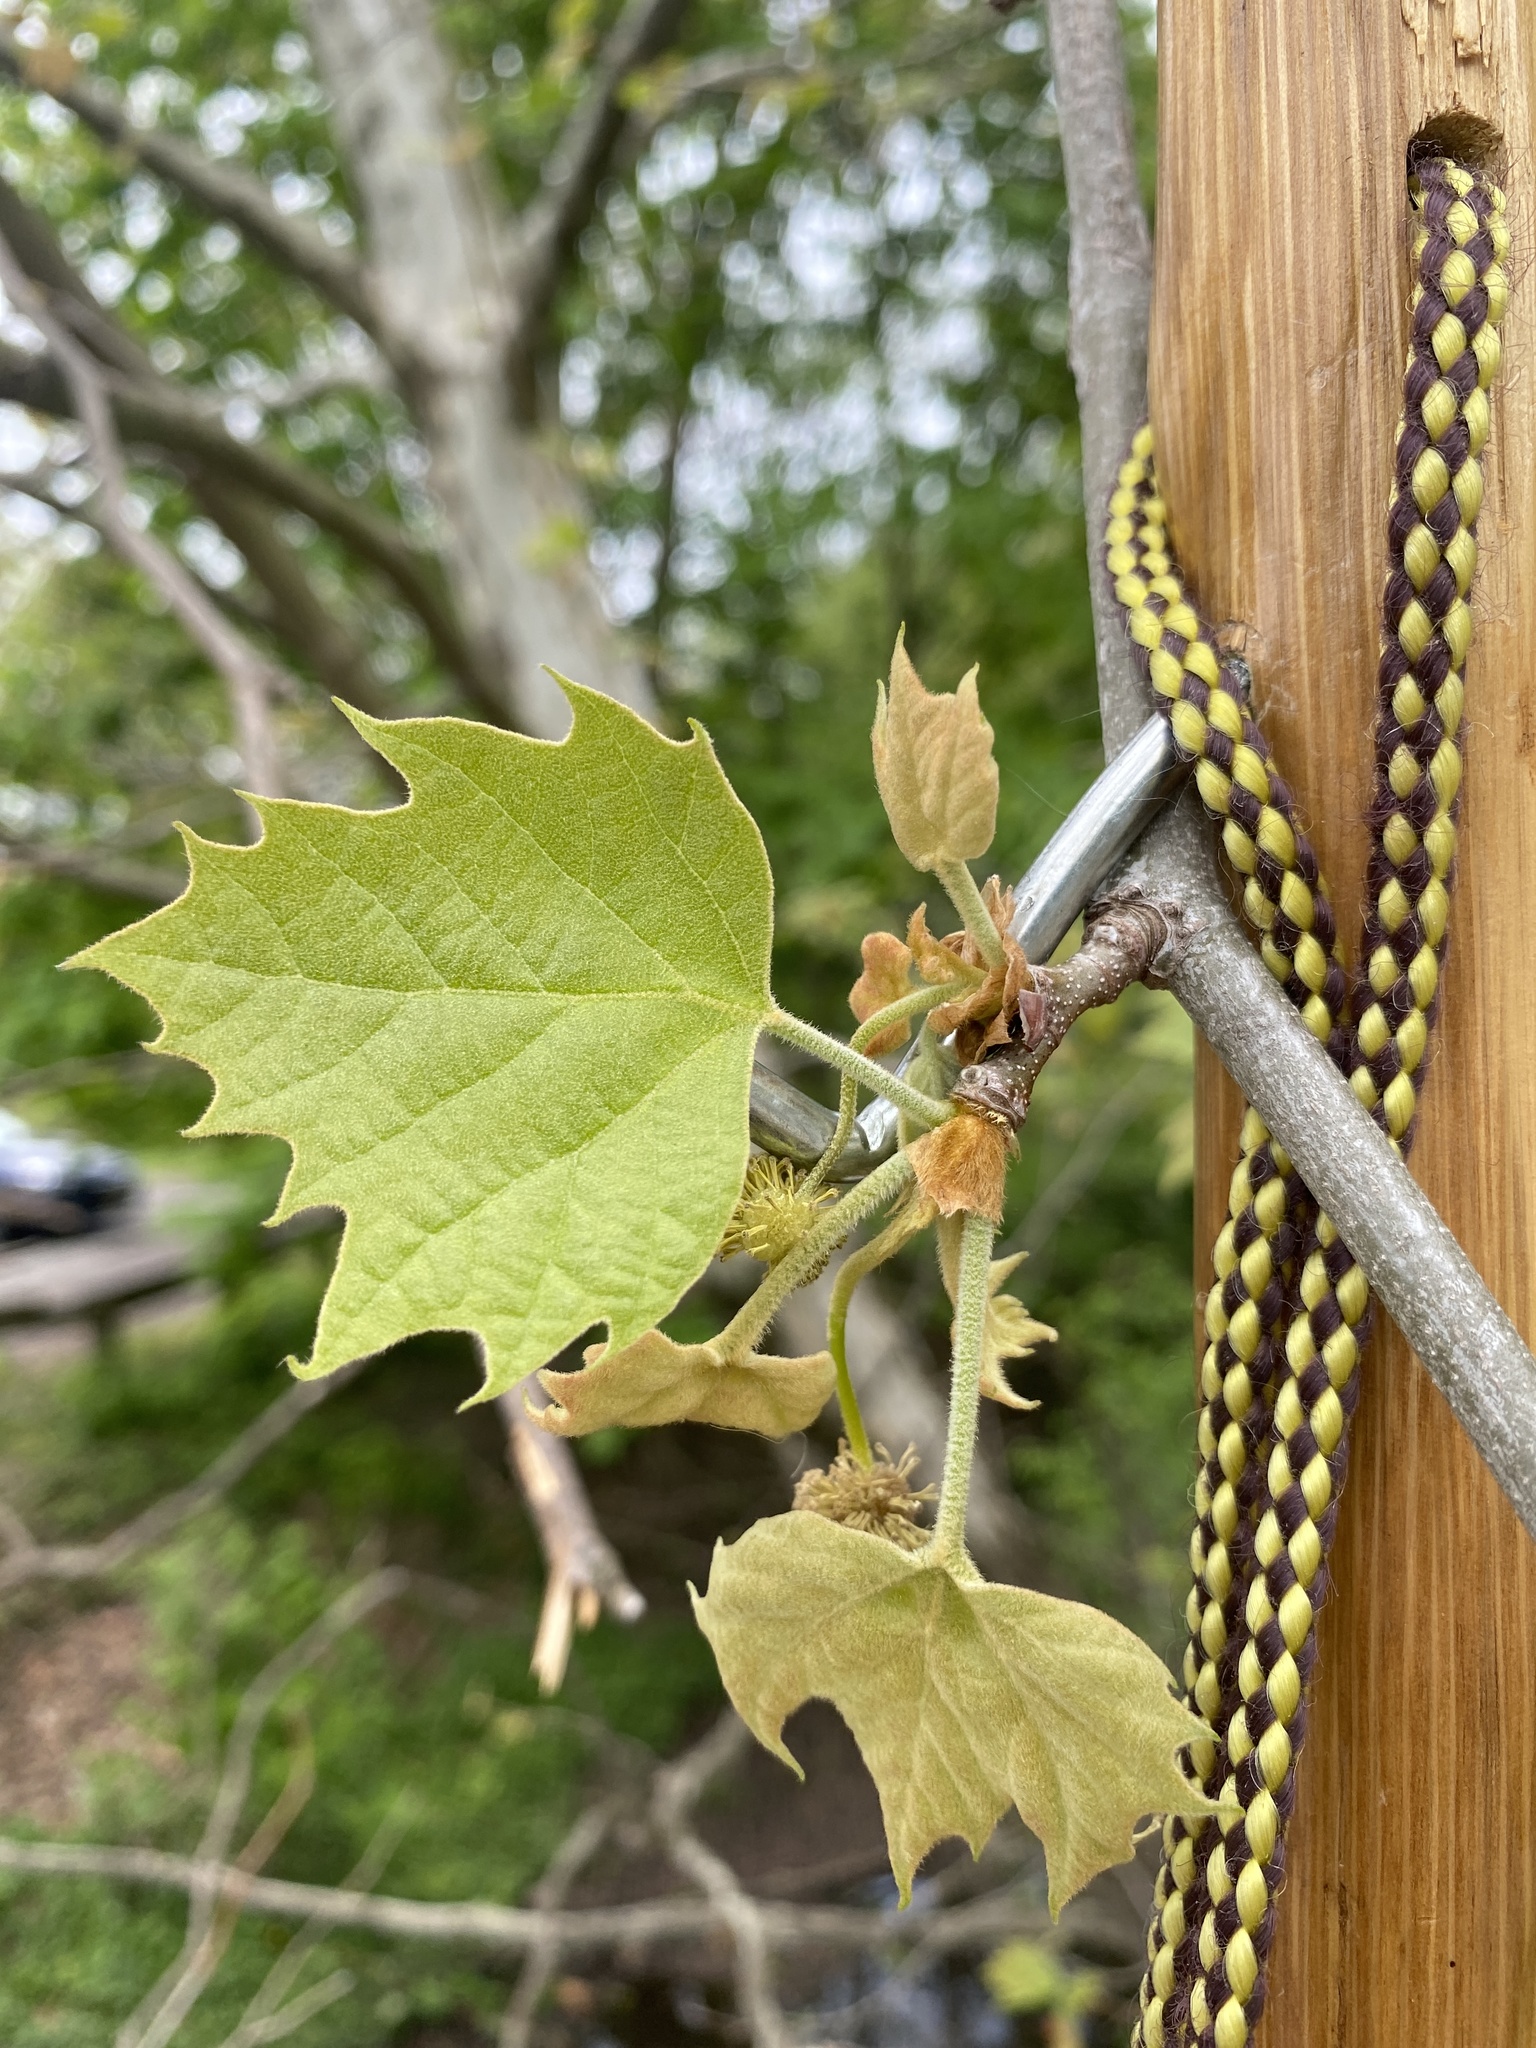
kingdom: Plantae
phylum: Tracheophyta
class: Magnoliopsida
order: Proteales
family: Platanaceae
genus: Platanus
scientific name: Platanus occidentalis
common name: American sycamore
